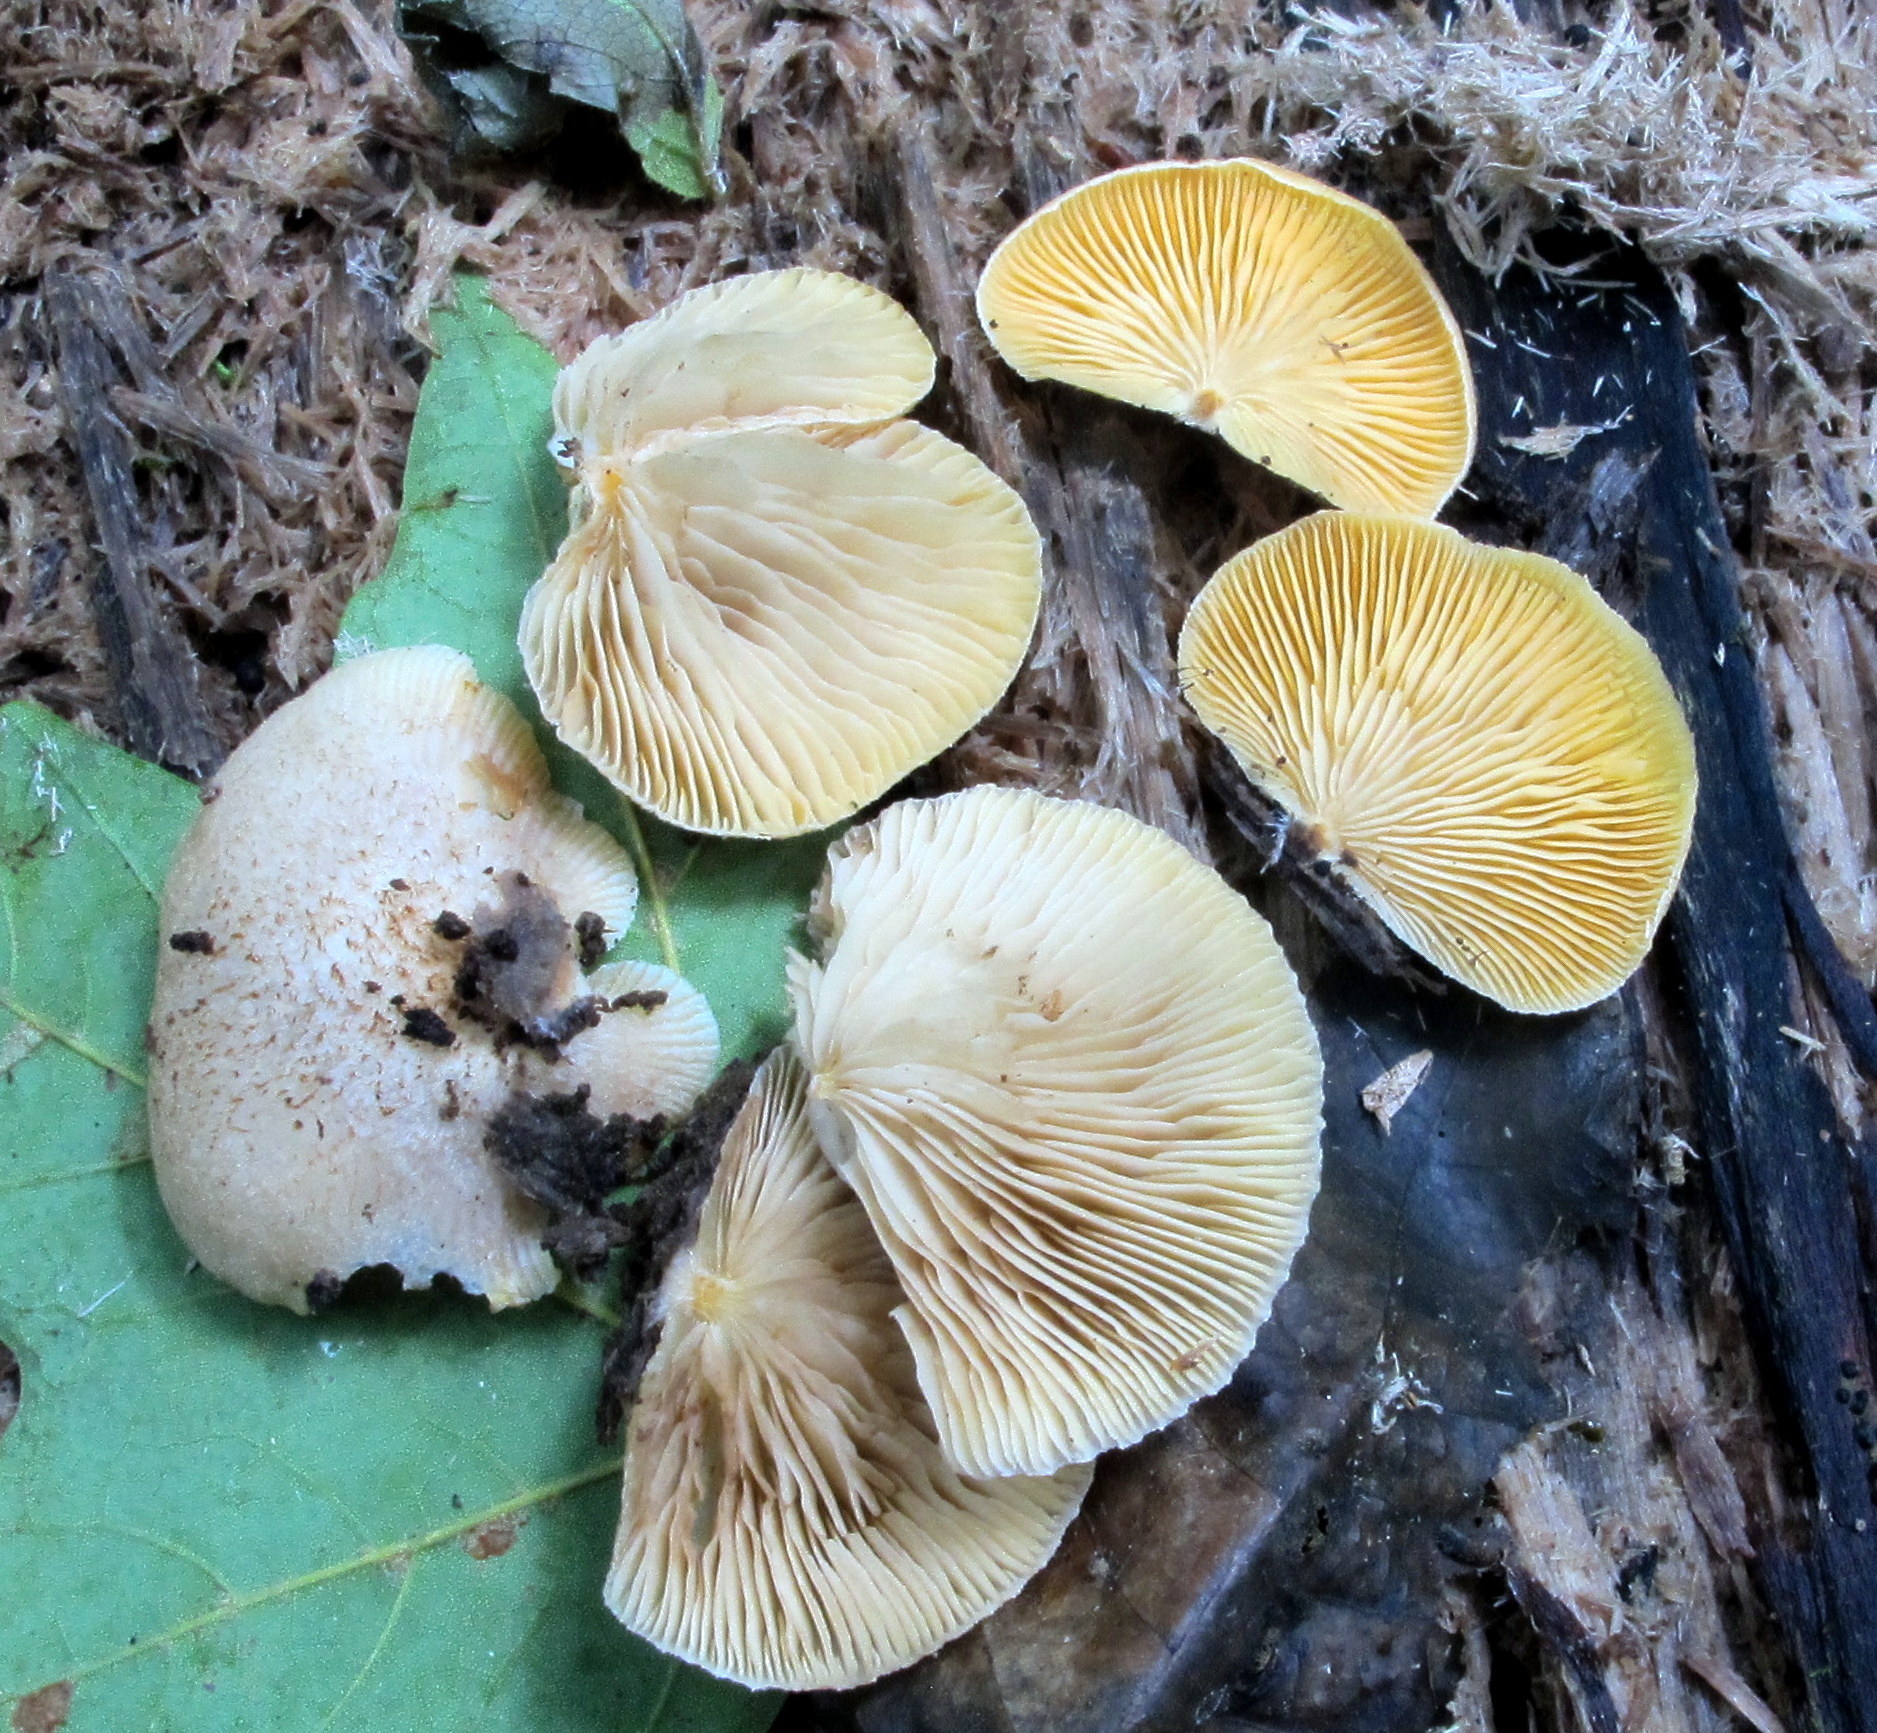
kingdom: Fungi
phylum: Basidiomycota
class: Agaricomycetes
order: Agaricales
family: Crepidotaceae
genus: Crepidotus
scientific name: Crepidotus crocophyllus
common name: Saffron oysterling
